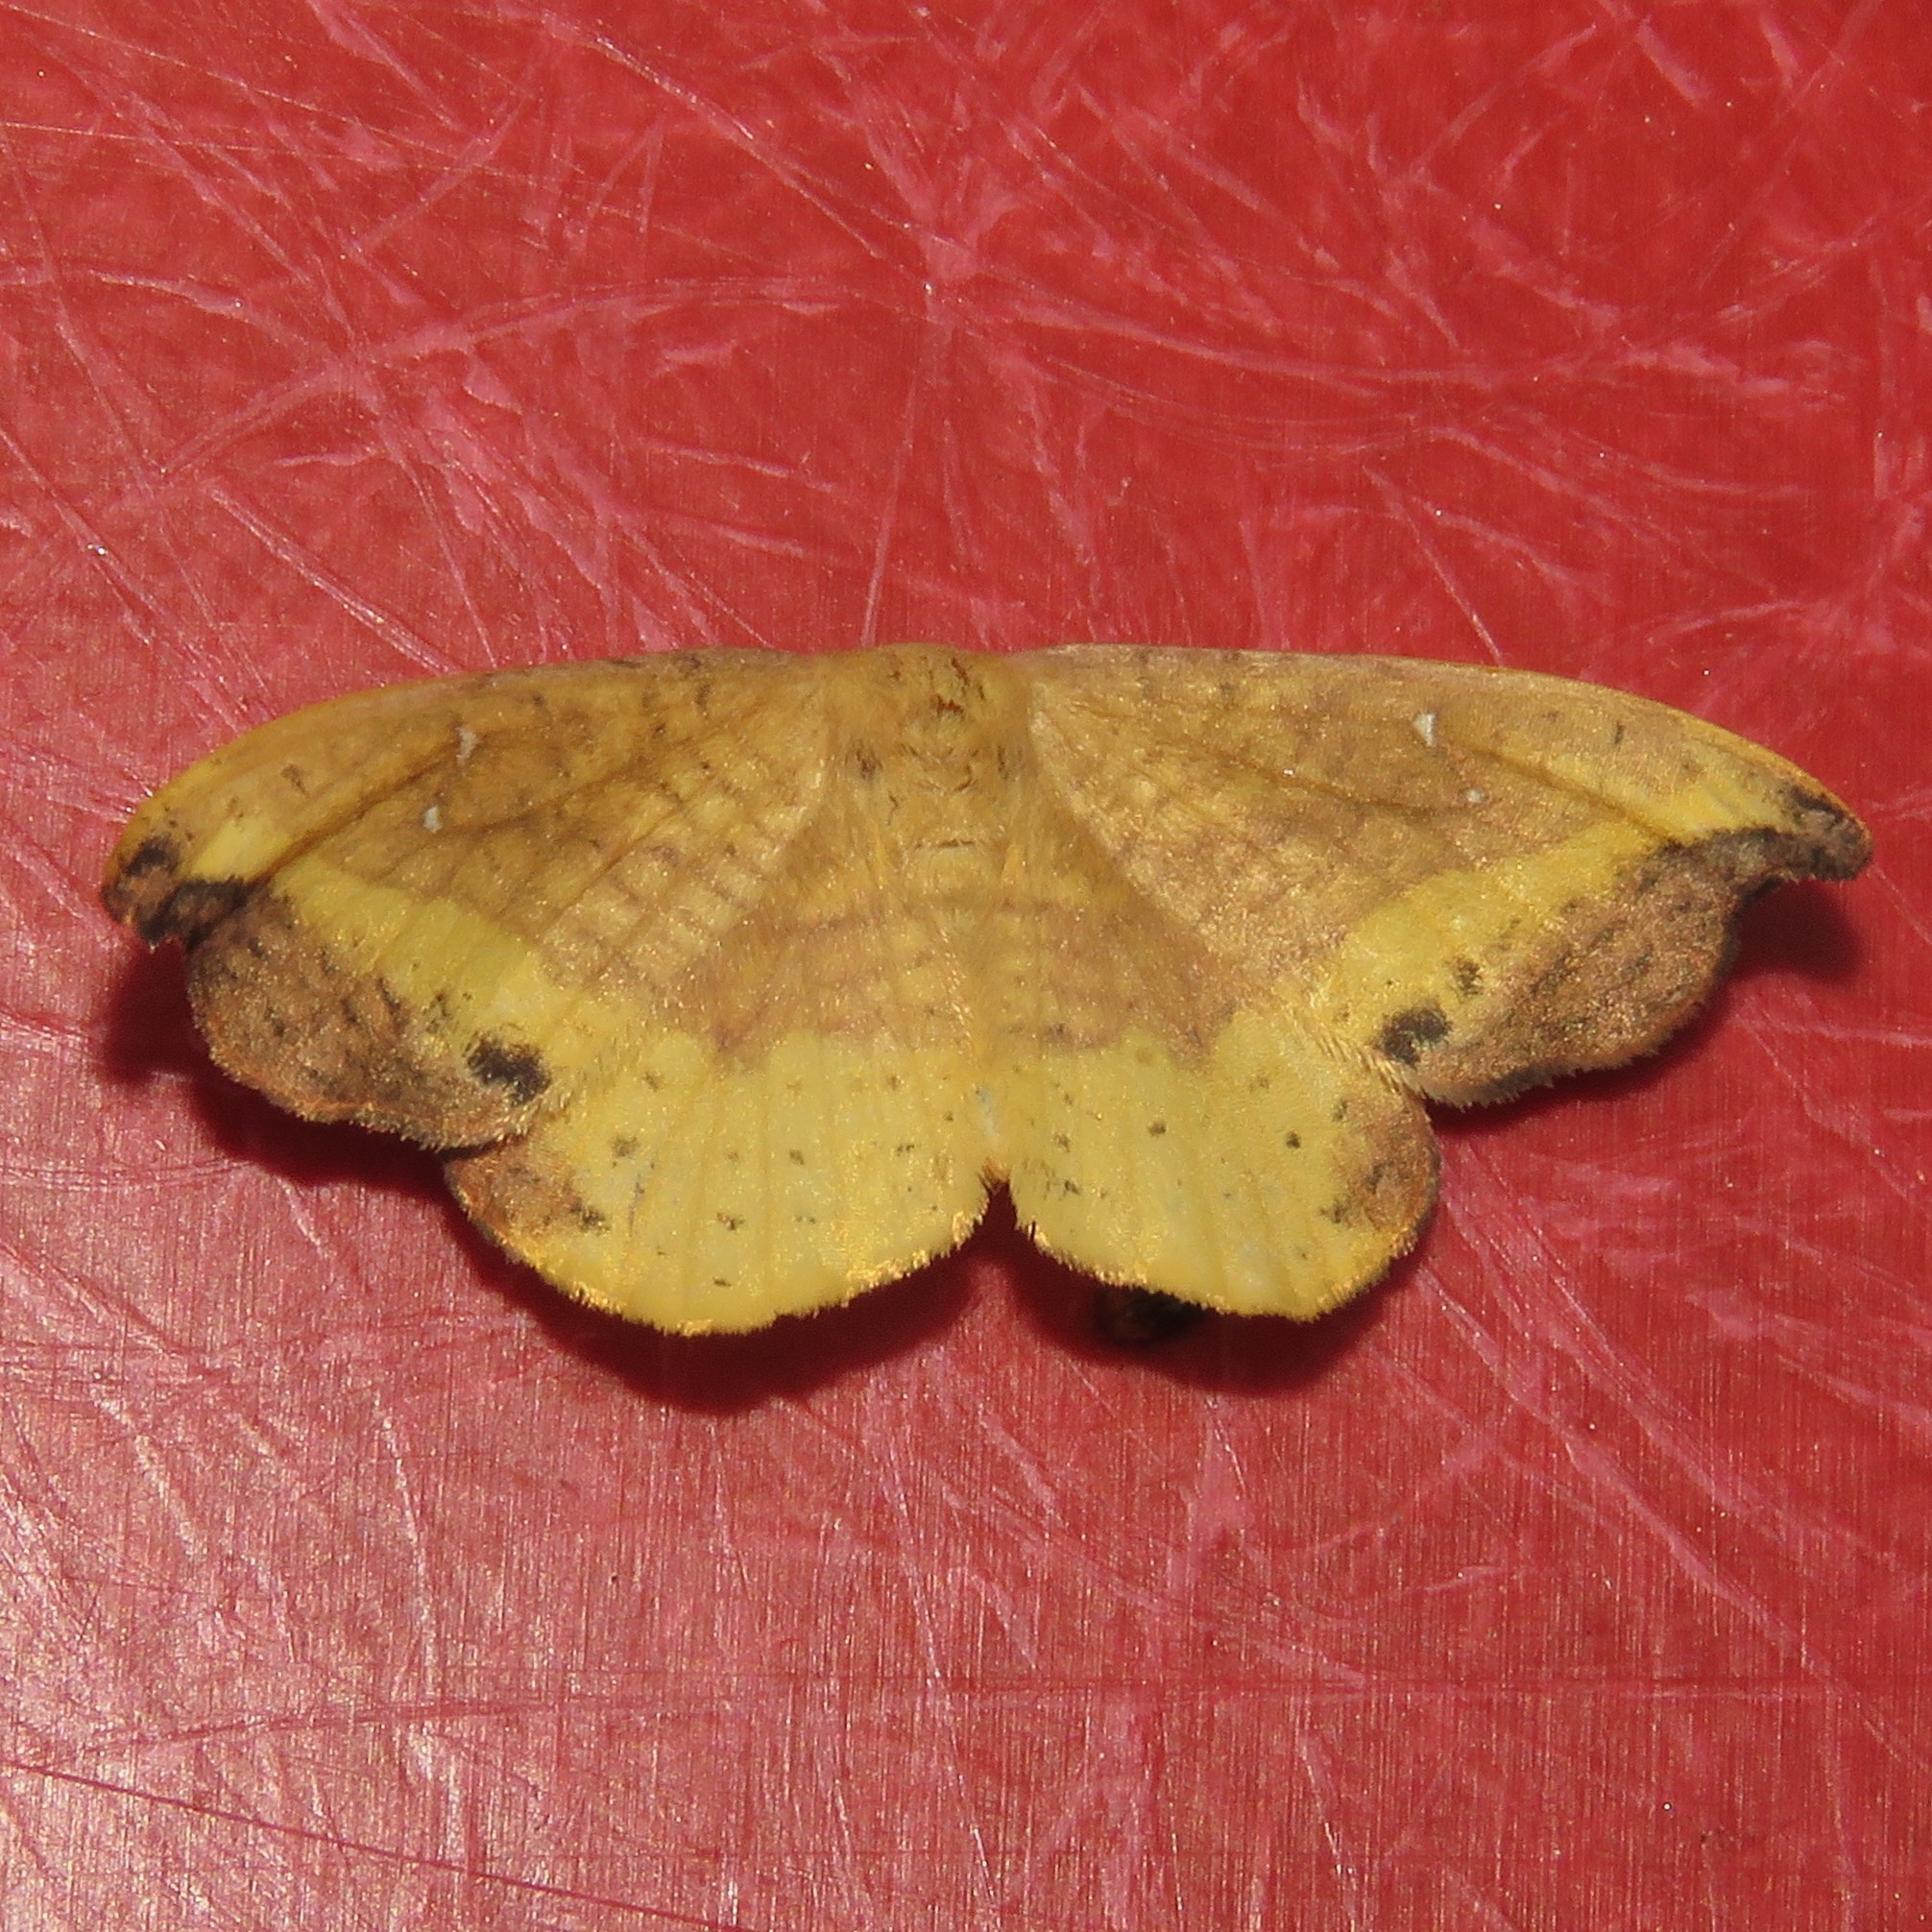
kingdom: Animalia
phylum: Arthropoda
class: Insecta
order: Lepidoptera
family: Drepanidae
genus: Oreta
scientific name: Oreta rosea
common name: Rose hooktip
